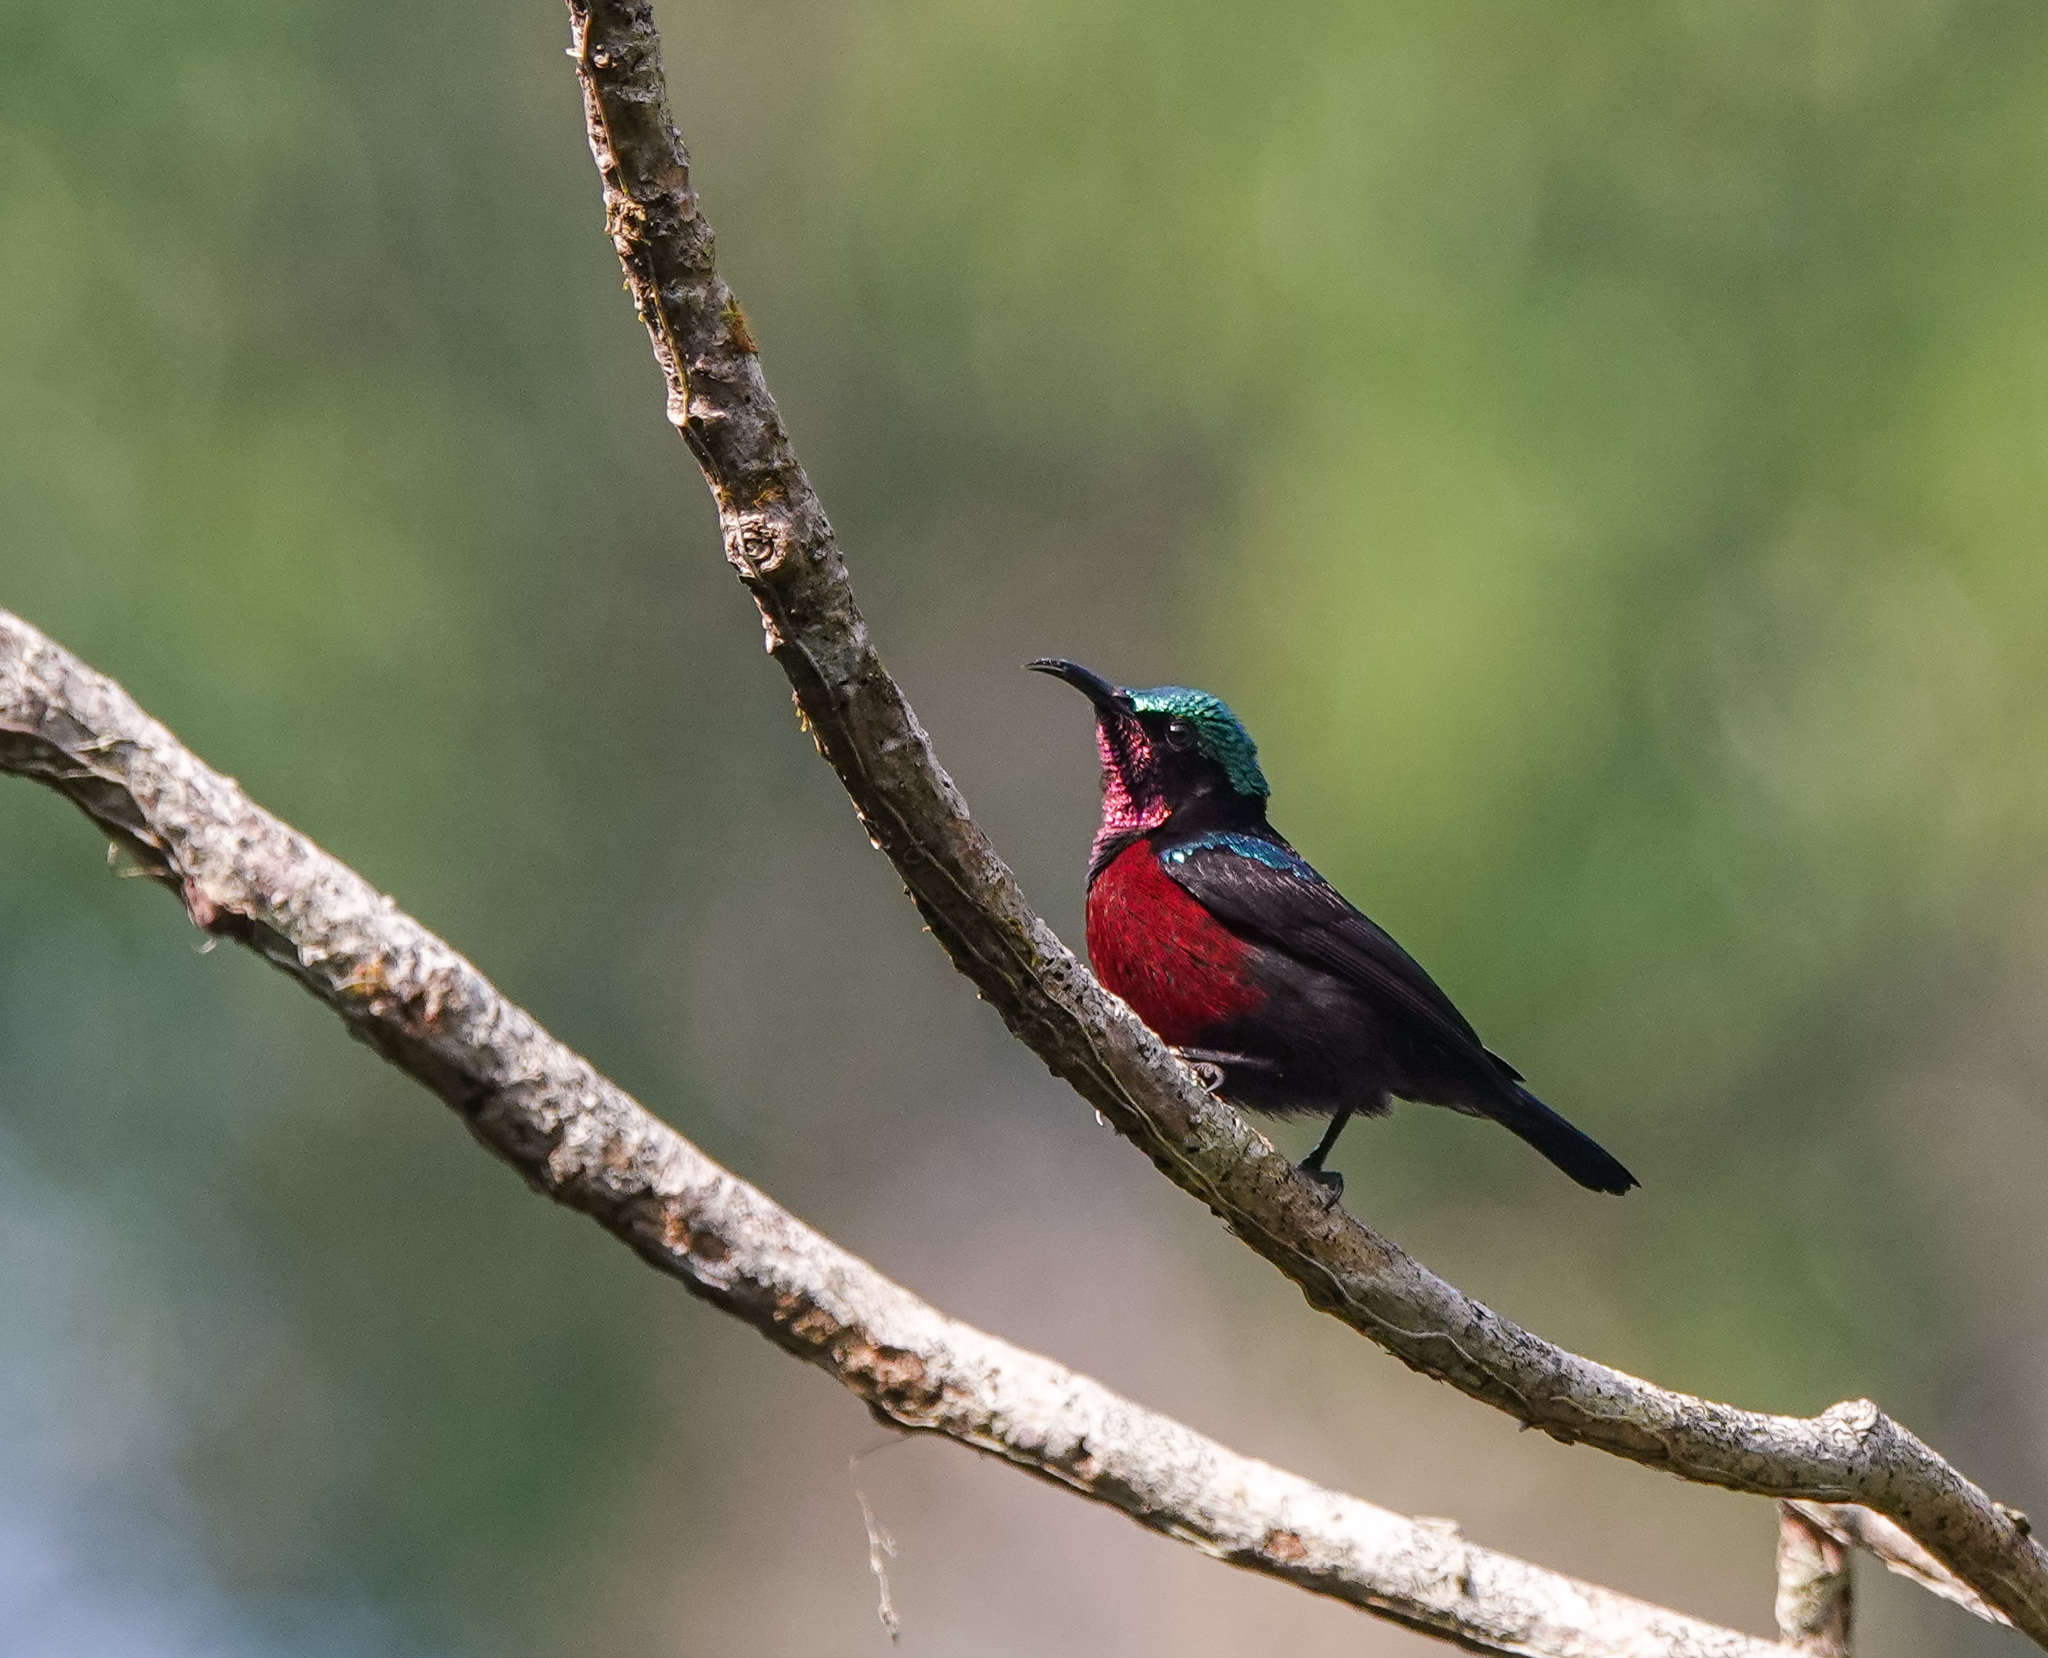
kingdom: Animalia
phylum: Chordata
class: Aves
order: Passeriformes
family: Nectariniidae
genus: Leptocoma
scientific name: Leptocoma brasiliana
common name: Van hasselt's sunbird
